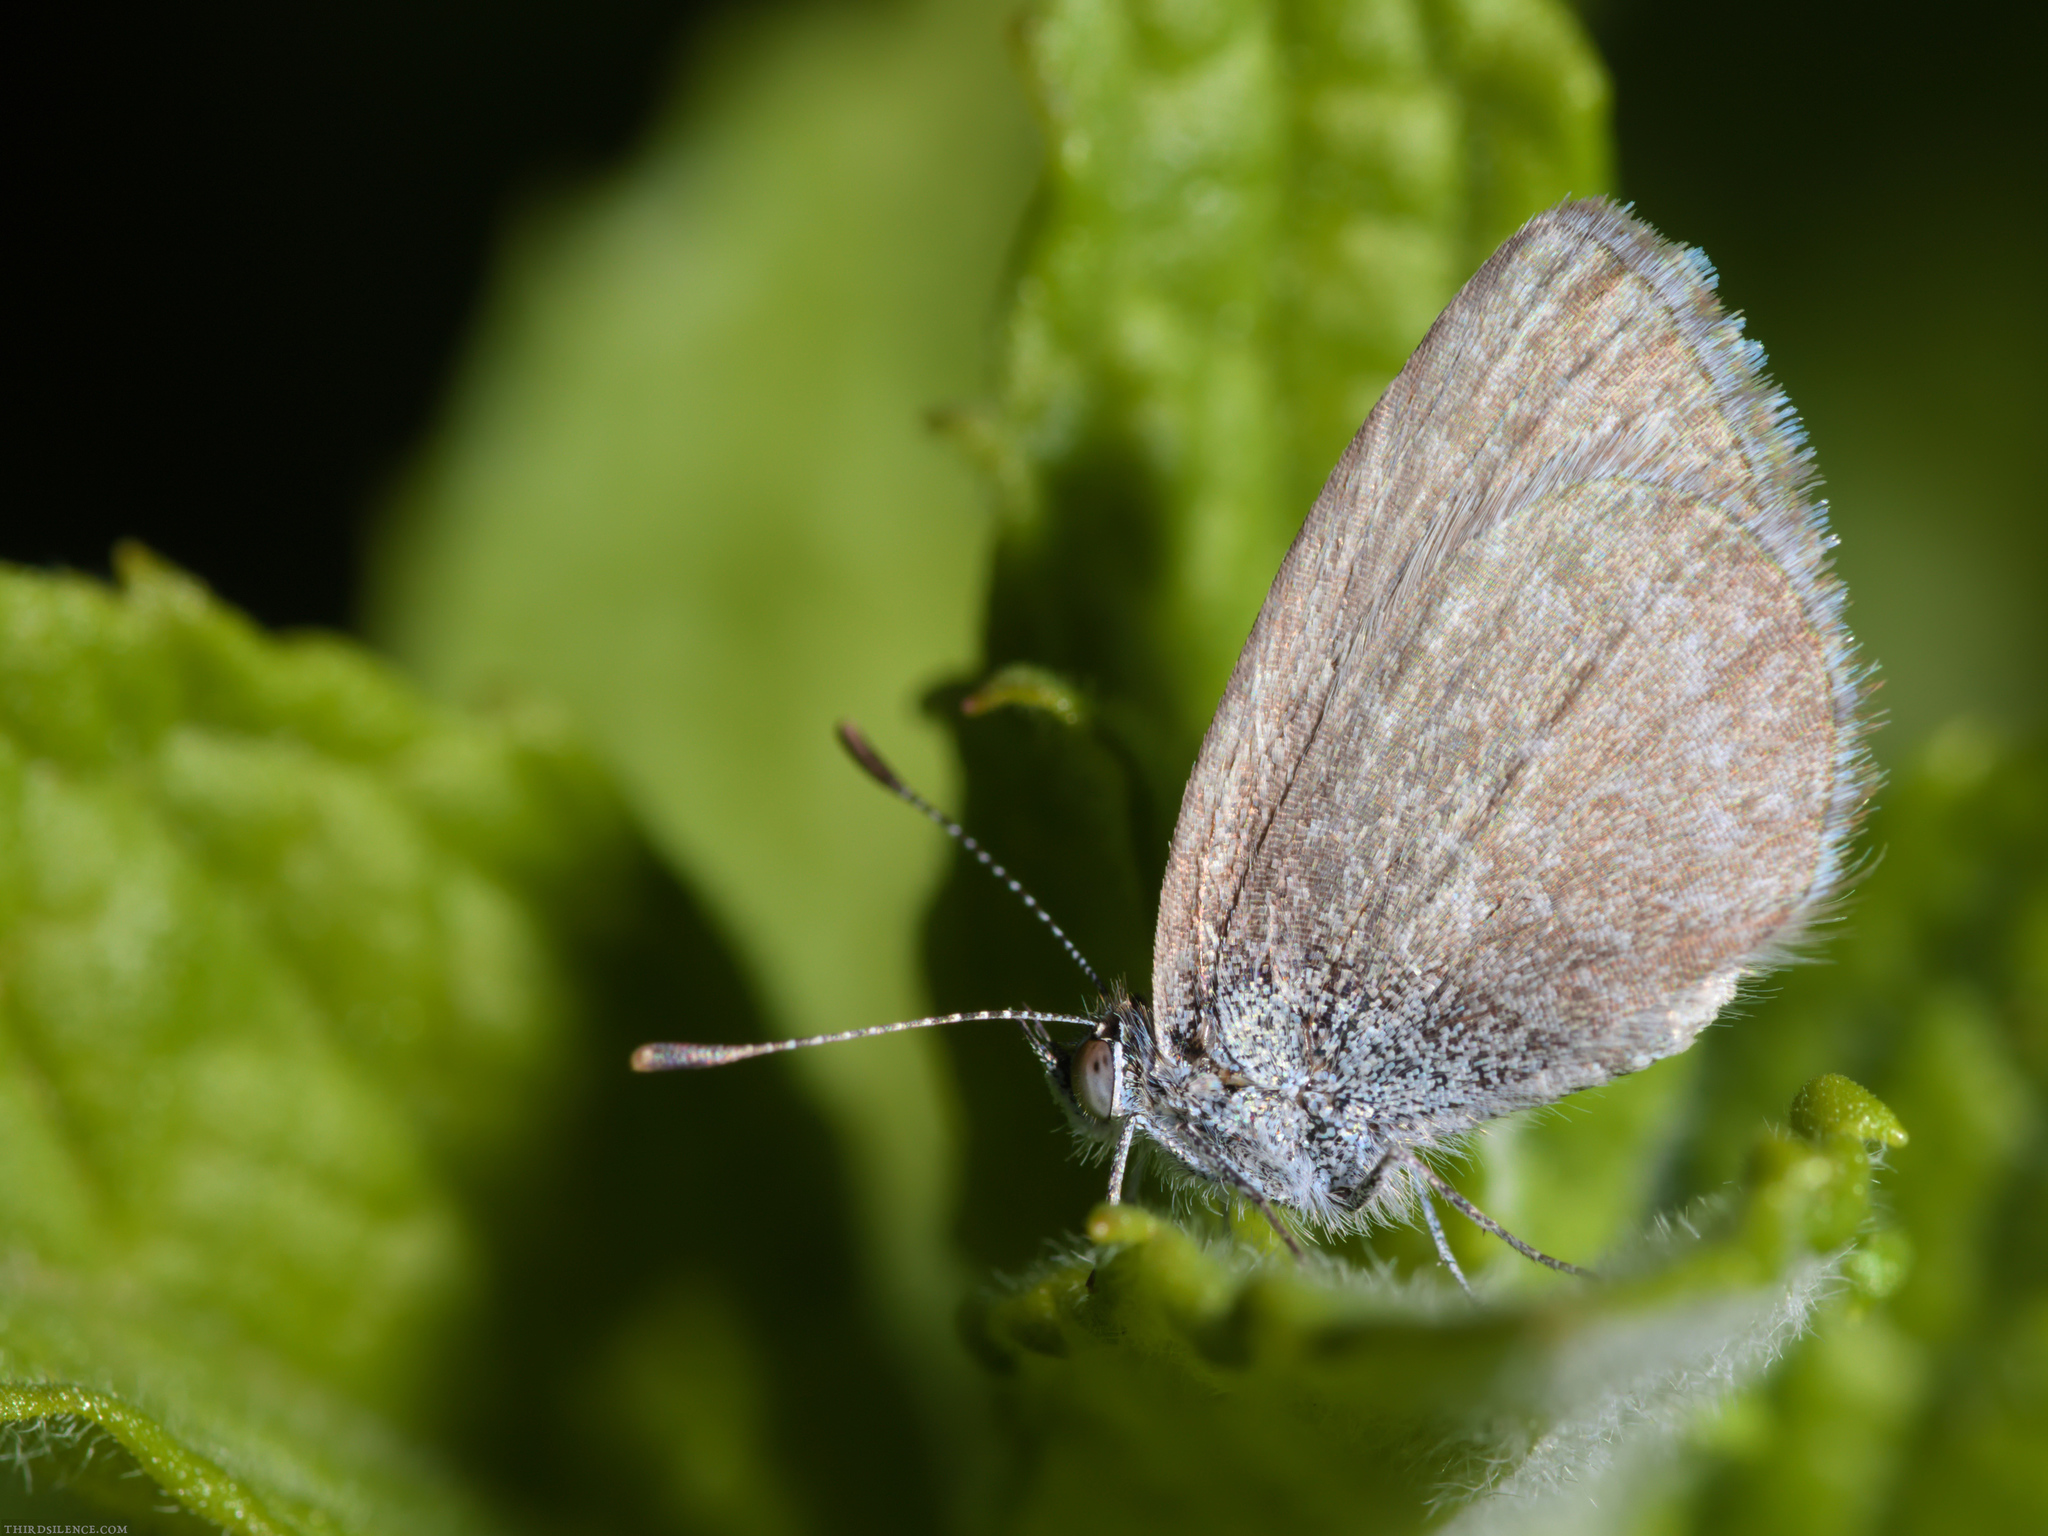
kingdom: Animalia
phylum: Arthropoda
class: Insecta
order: Lepidoptera
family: Lycaenidae
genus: Zizina
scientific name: Zizina labradus
